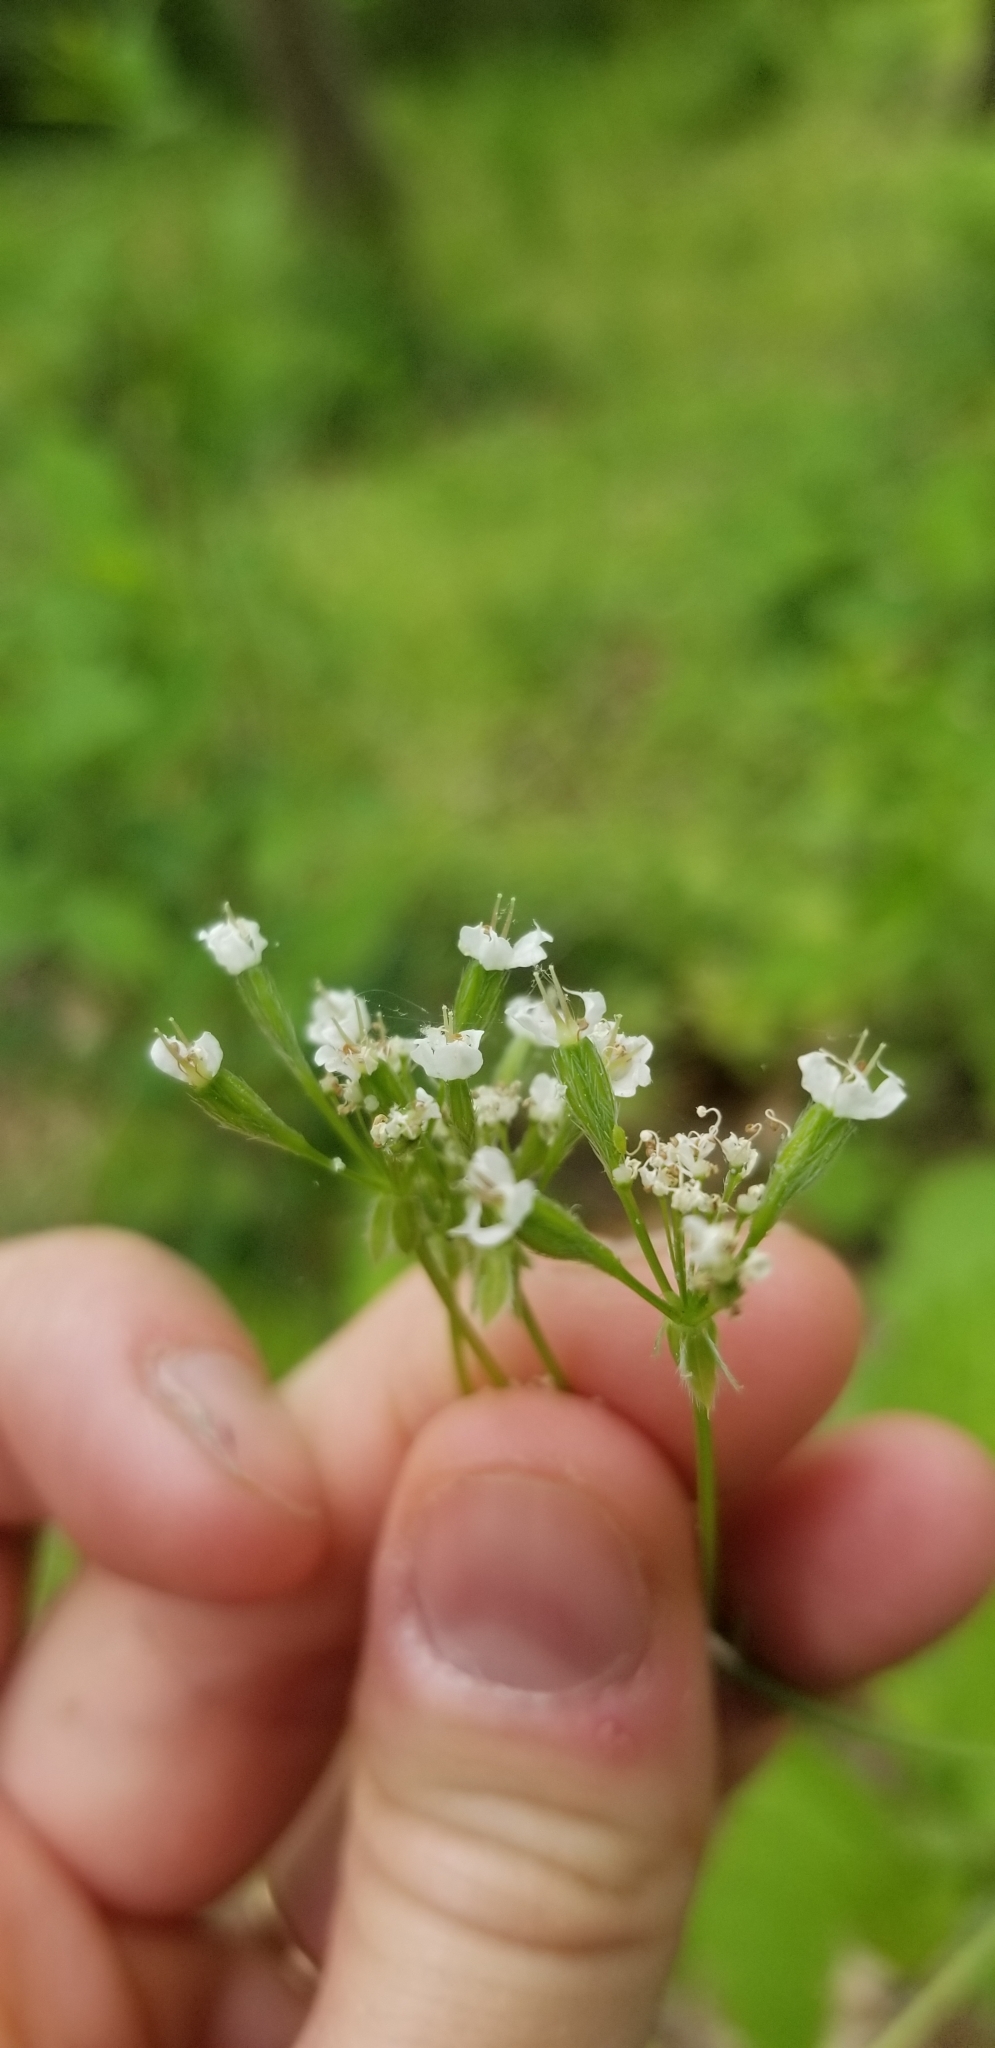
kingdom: Plantae
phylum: Tracheophyta
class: Magnoliopsida
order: Apiales
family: Apiaceae
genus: Osmorhiza
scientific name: Osmorhiza longistylis
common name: Smooth sweet cicely
